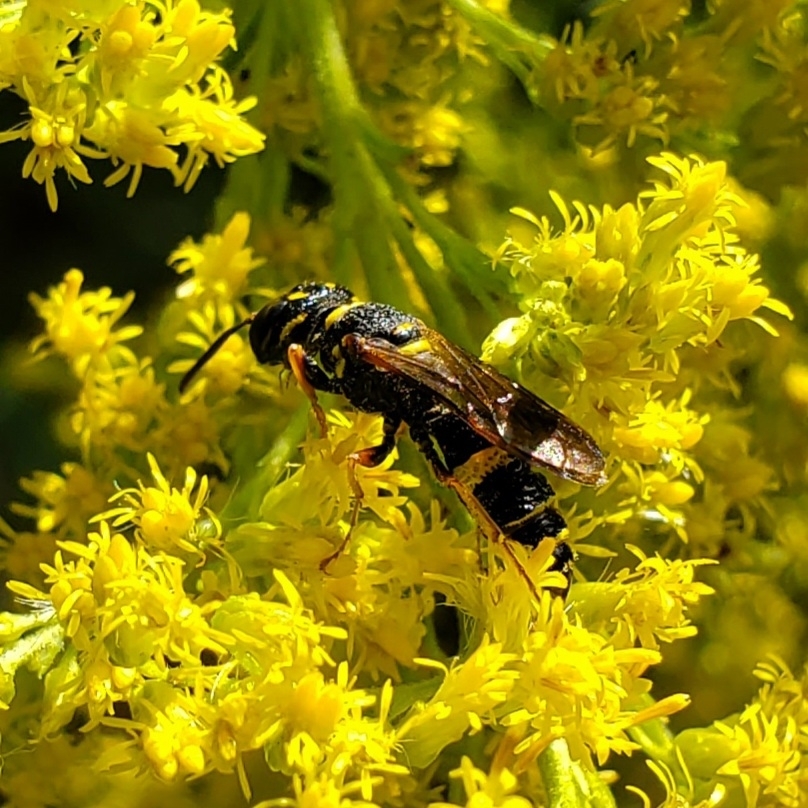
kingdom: Animalia
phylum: Arthropoda
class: Insecta
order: Hymenoptera
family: Crabronidae
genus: Philanthus
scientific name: Philanthus gibbosus
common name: Humped beewolf
